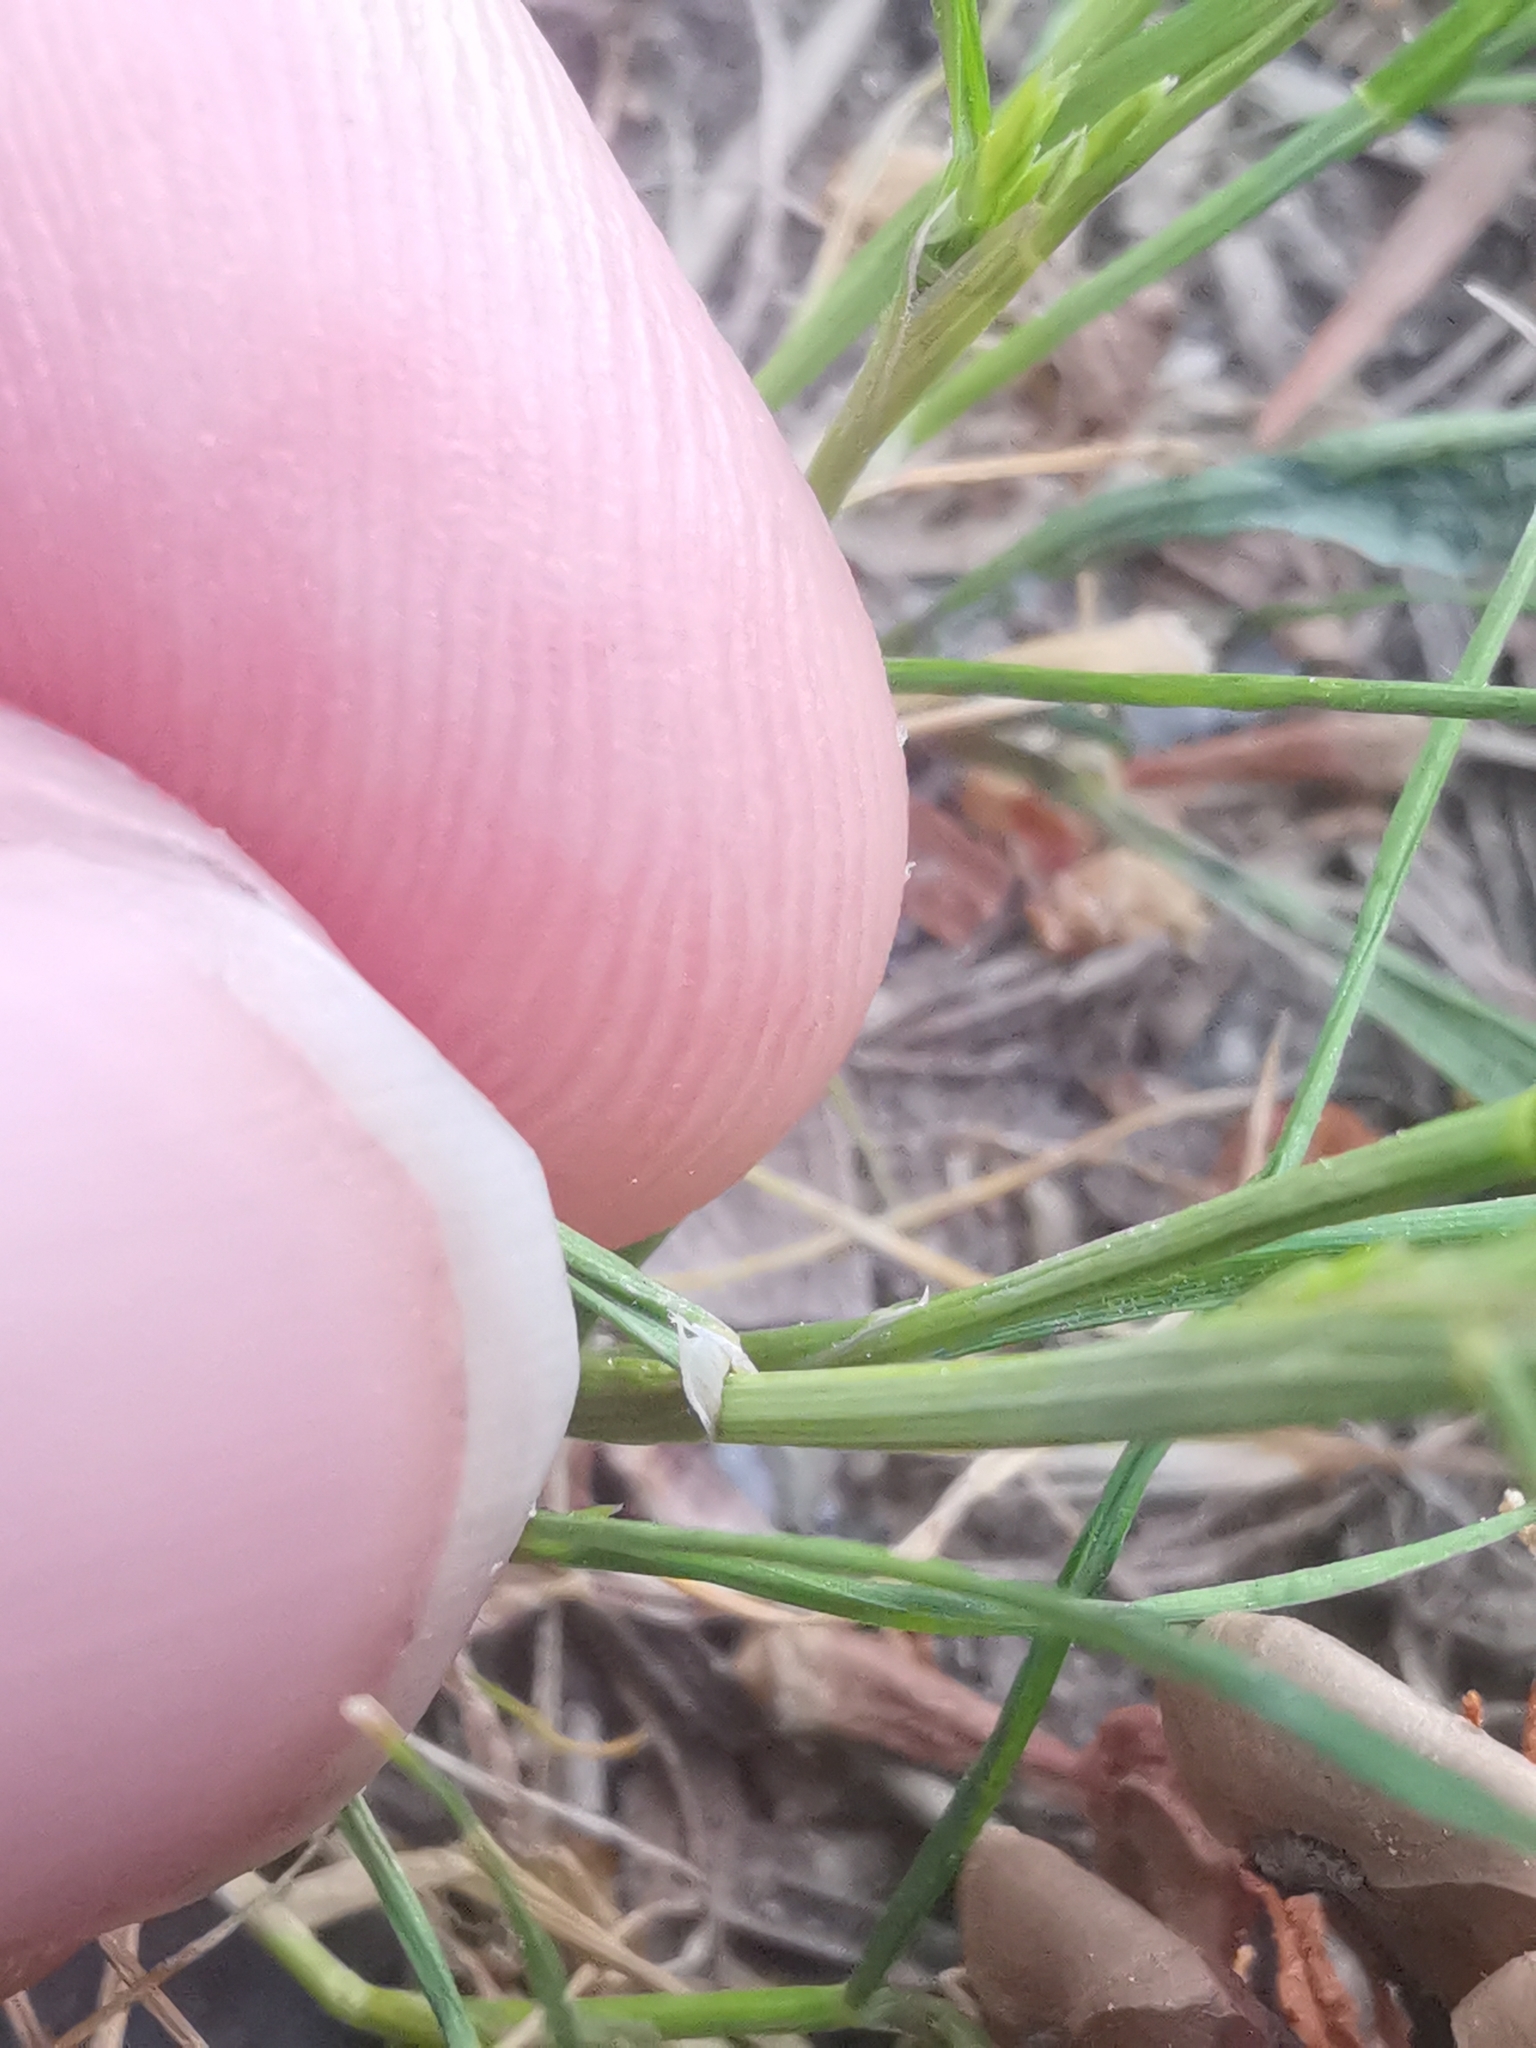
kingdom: Plantae
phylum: Tracheophyta
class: Liliopsida
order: Poales
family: Poaceae
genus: Catapodium
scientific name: Catapodium rigidum
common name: Fern-grass
